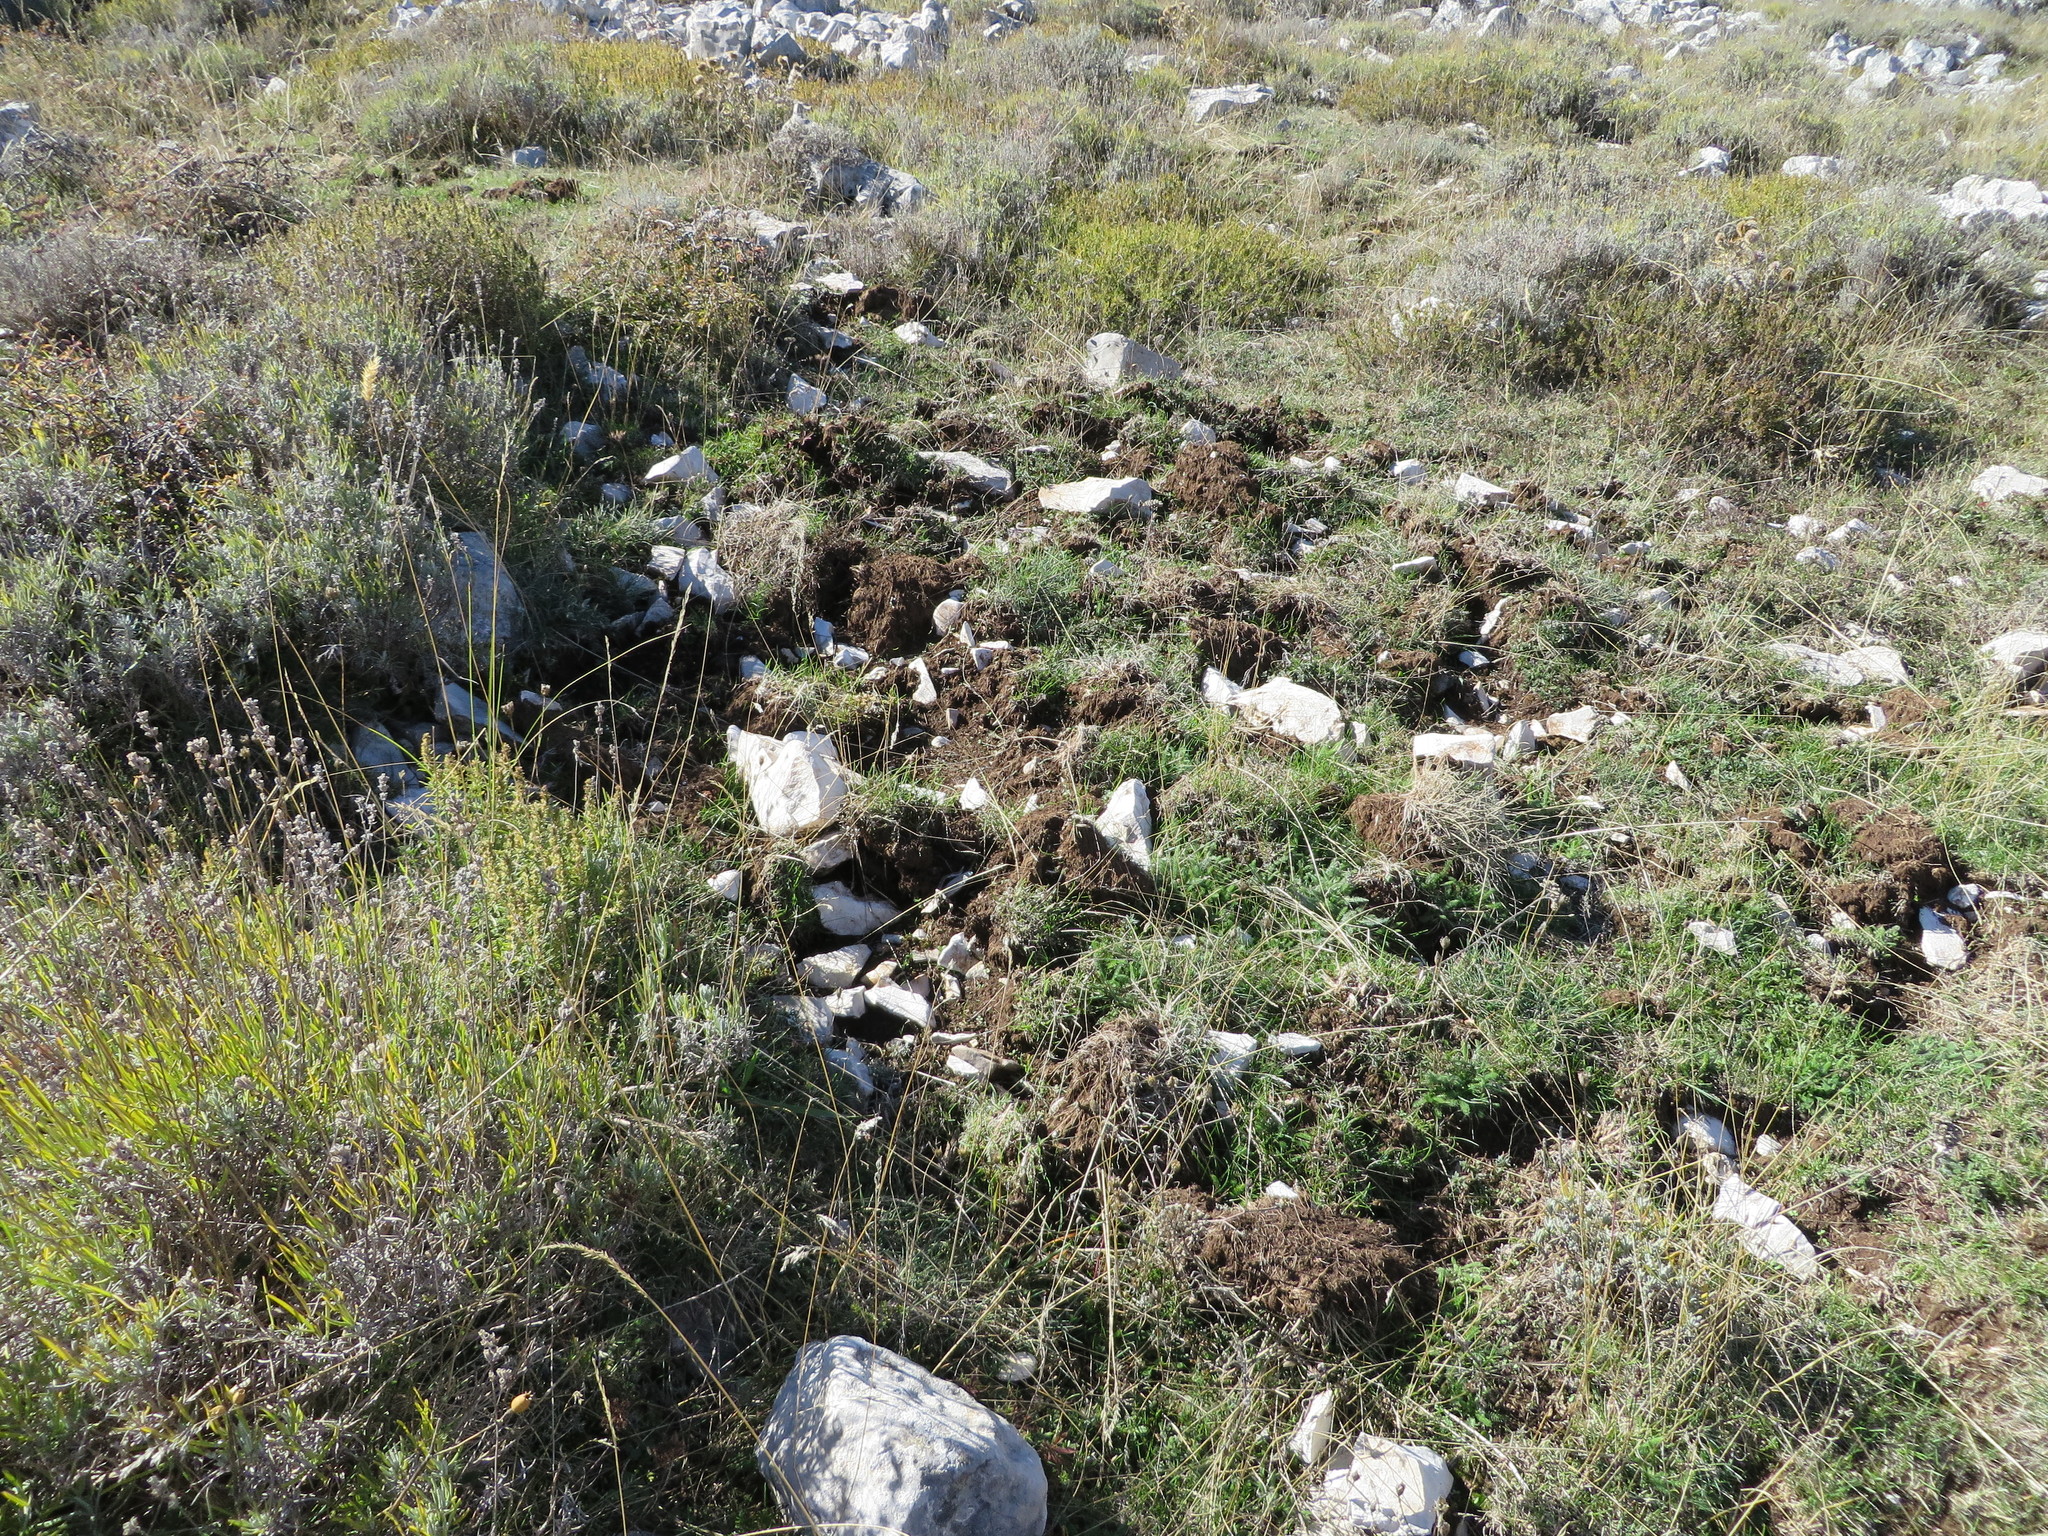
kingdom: Animalia
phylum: Chordata
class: Mammalia
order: Artiodactyla
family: Suidae
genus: Sus
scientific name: Sus scrofa
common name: Wild boar
